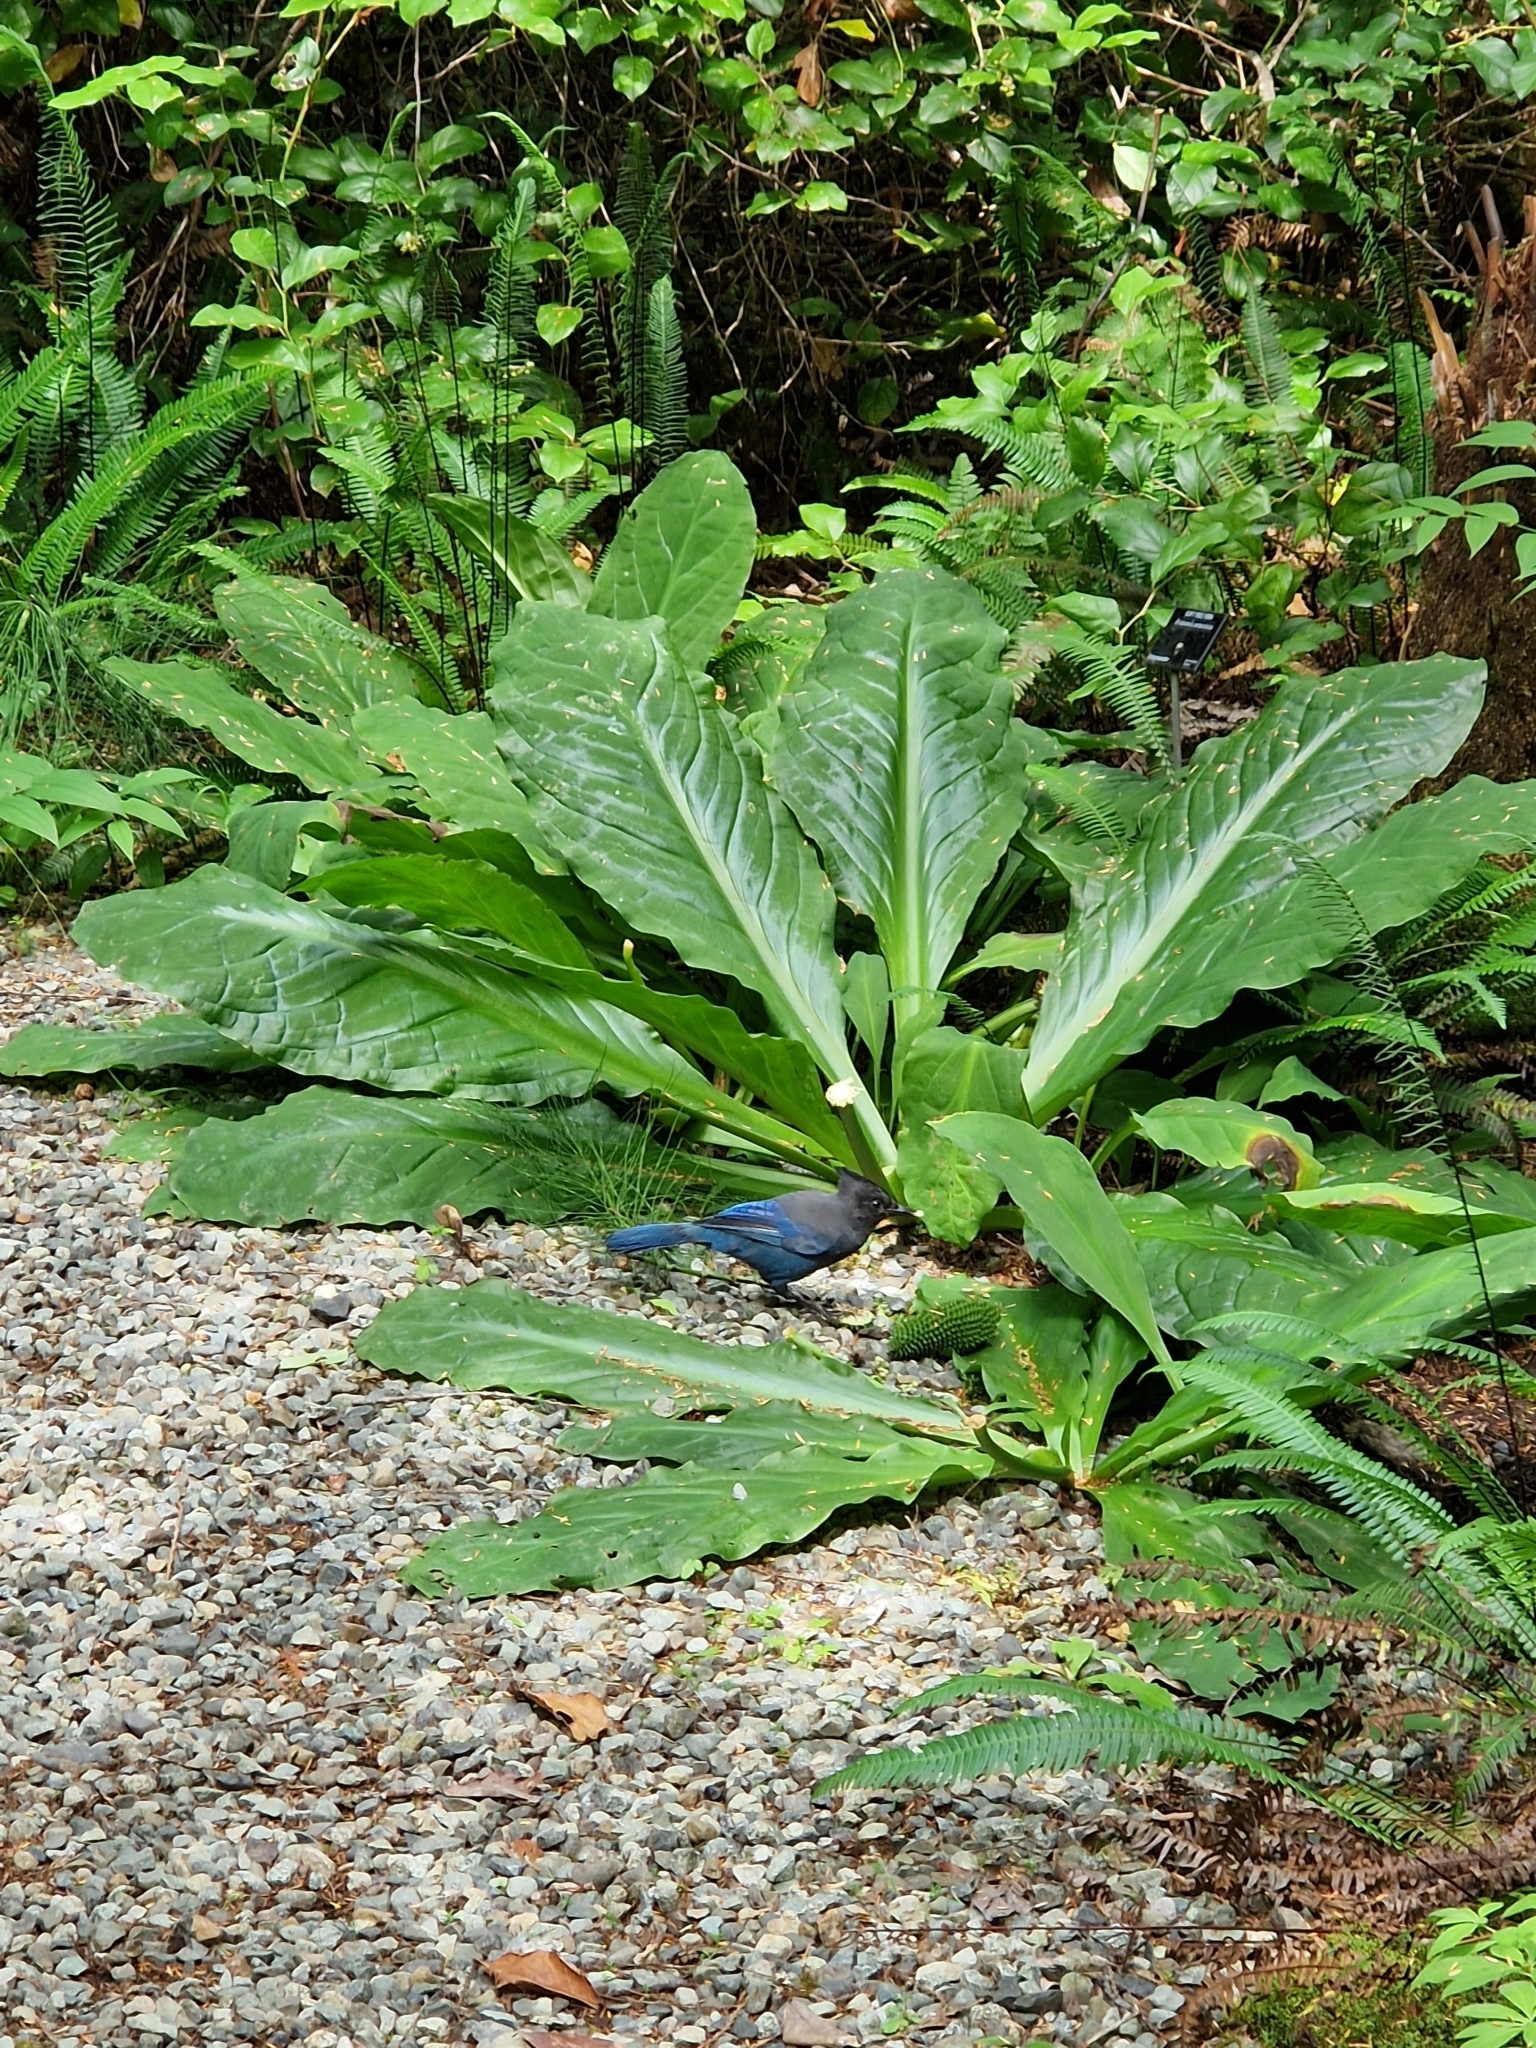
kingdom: Animalia
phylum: Chordata
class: Aves
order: Passeriformes
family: Corvidae
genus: Cyanocitta
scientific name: Cyanocitta stelleri
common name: Steller's jay
